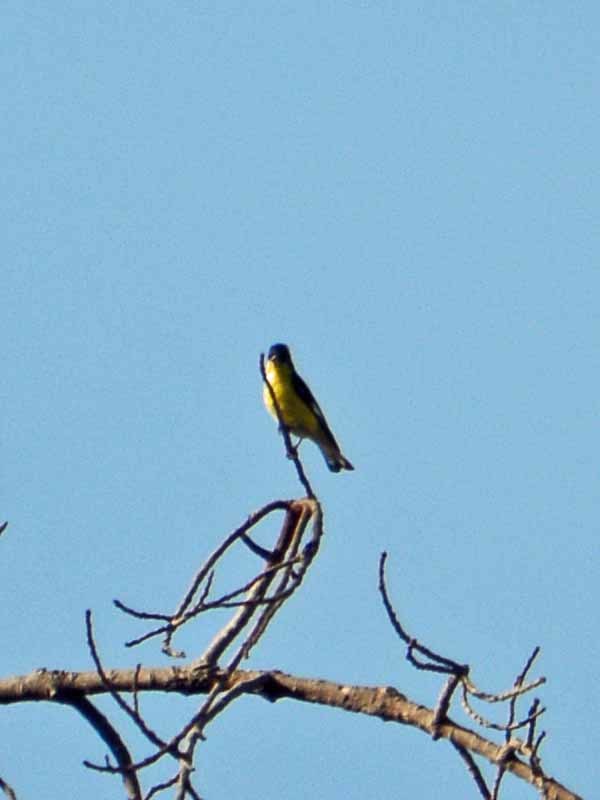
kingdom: Animalia
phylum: Chordata
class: Aves
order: Passeriformes
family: Fringillidae
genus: Spinus
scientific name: Spinus psaltria
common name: Lesser goldfinch
